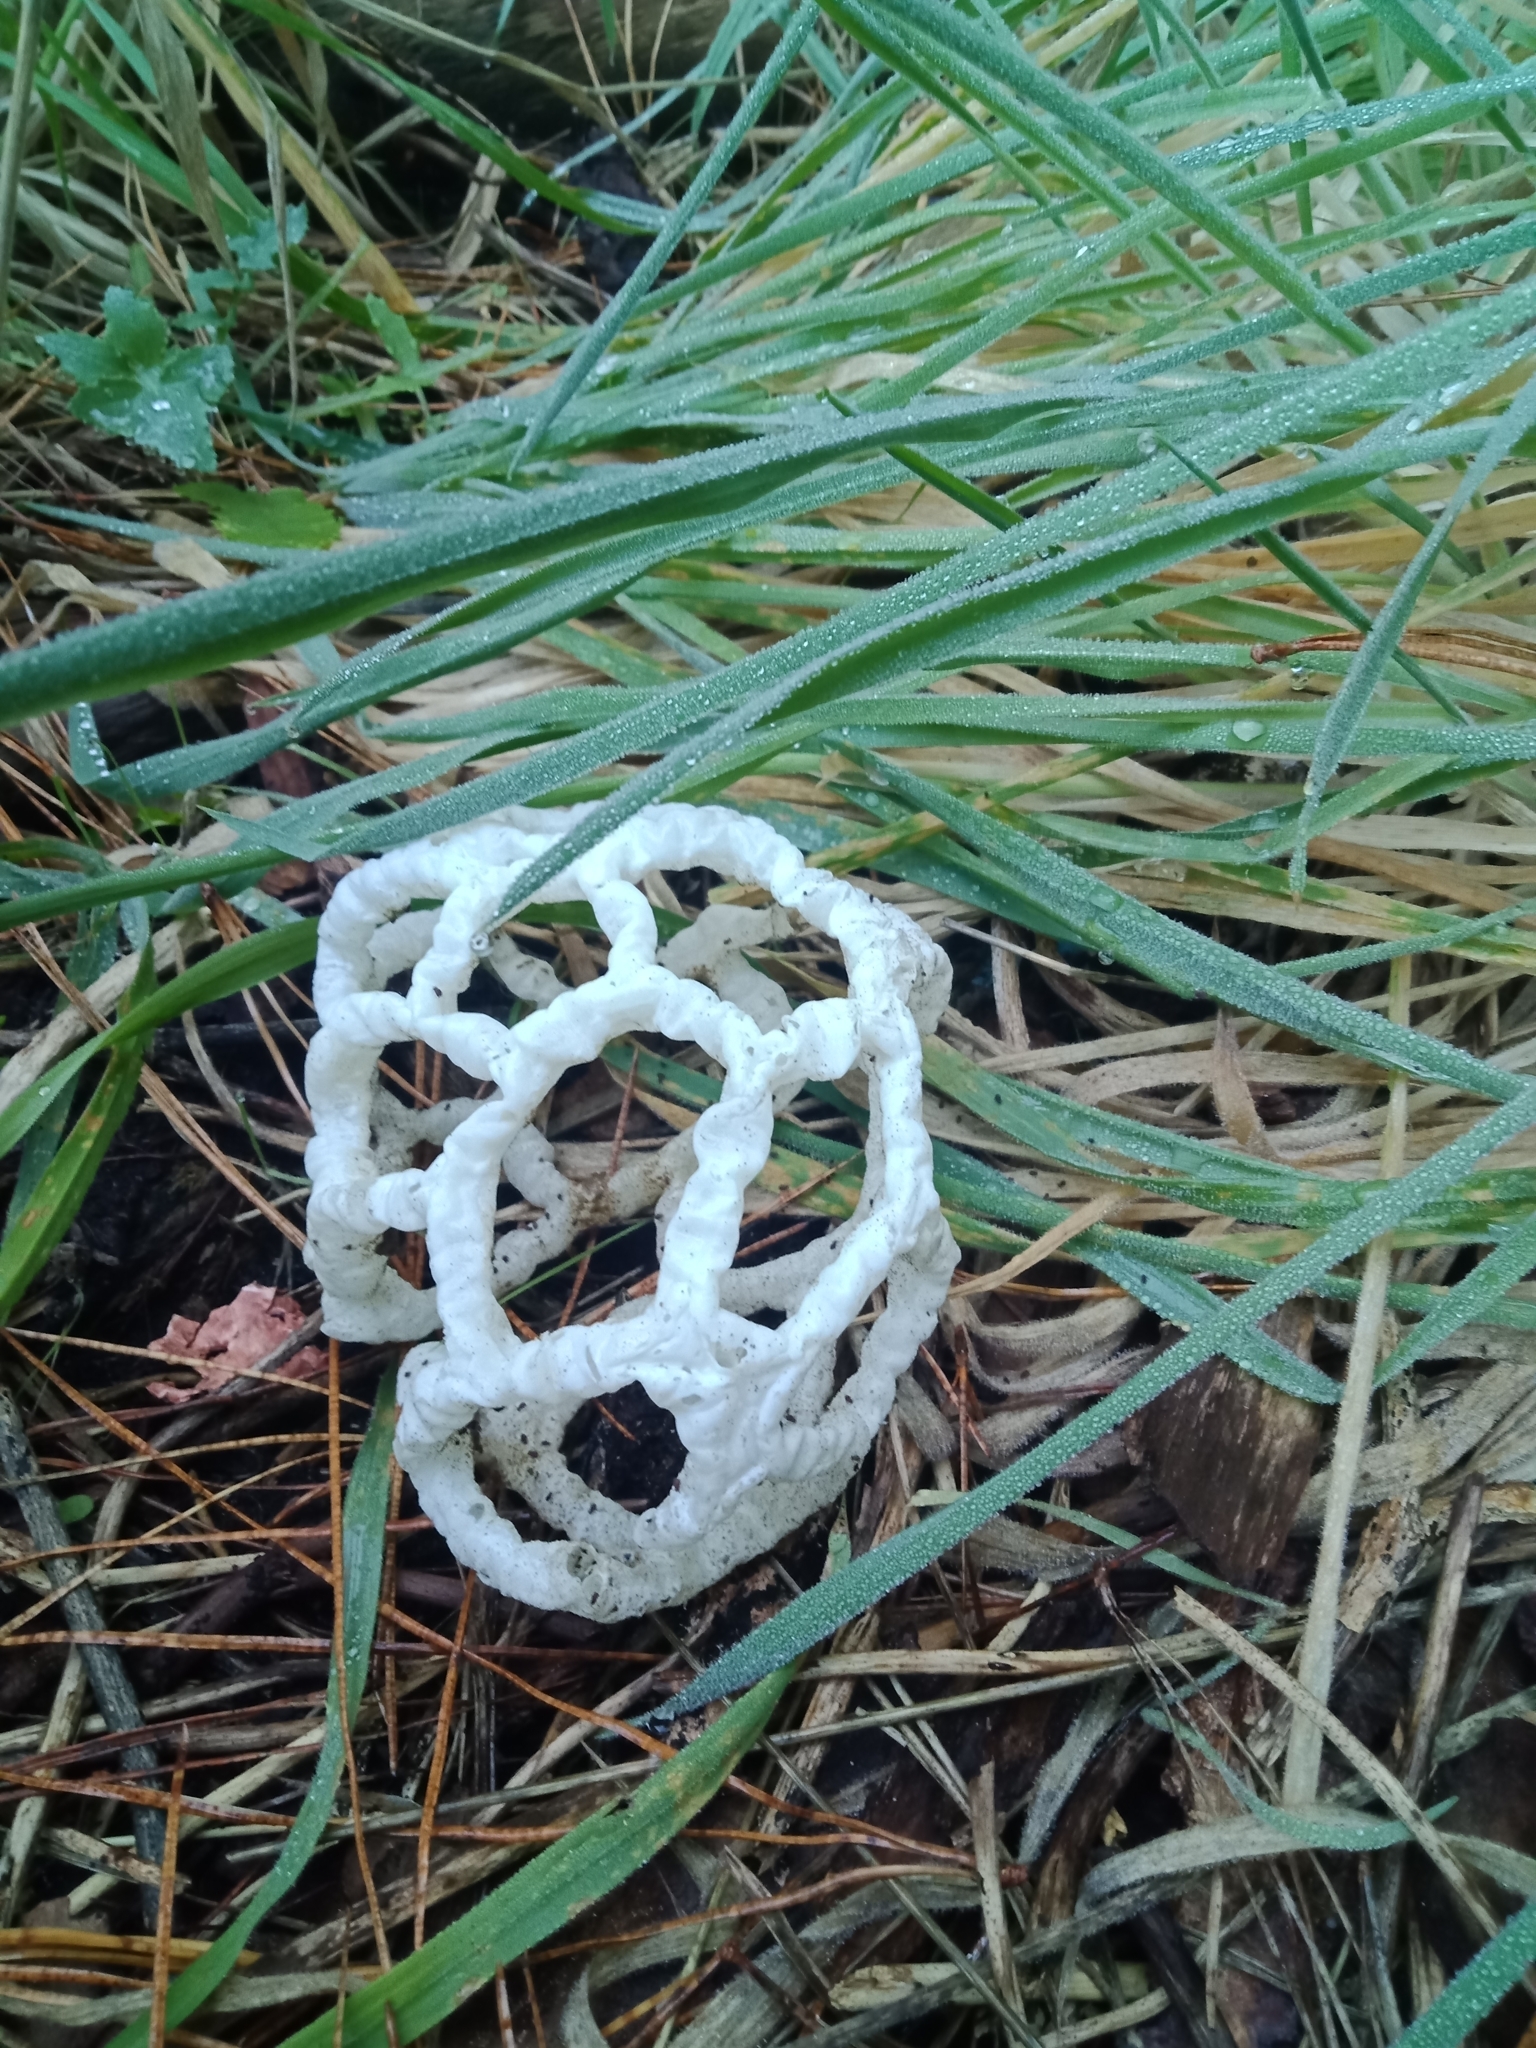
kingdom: Fungi
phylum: Basidiomycota
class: Agaricomycetes
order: Phallales
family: Phallaceae
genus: Ileodictyon
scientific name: Ileodictyon cibarium
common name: Basket fungus
